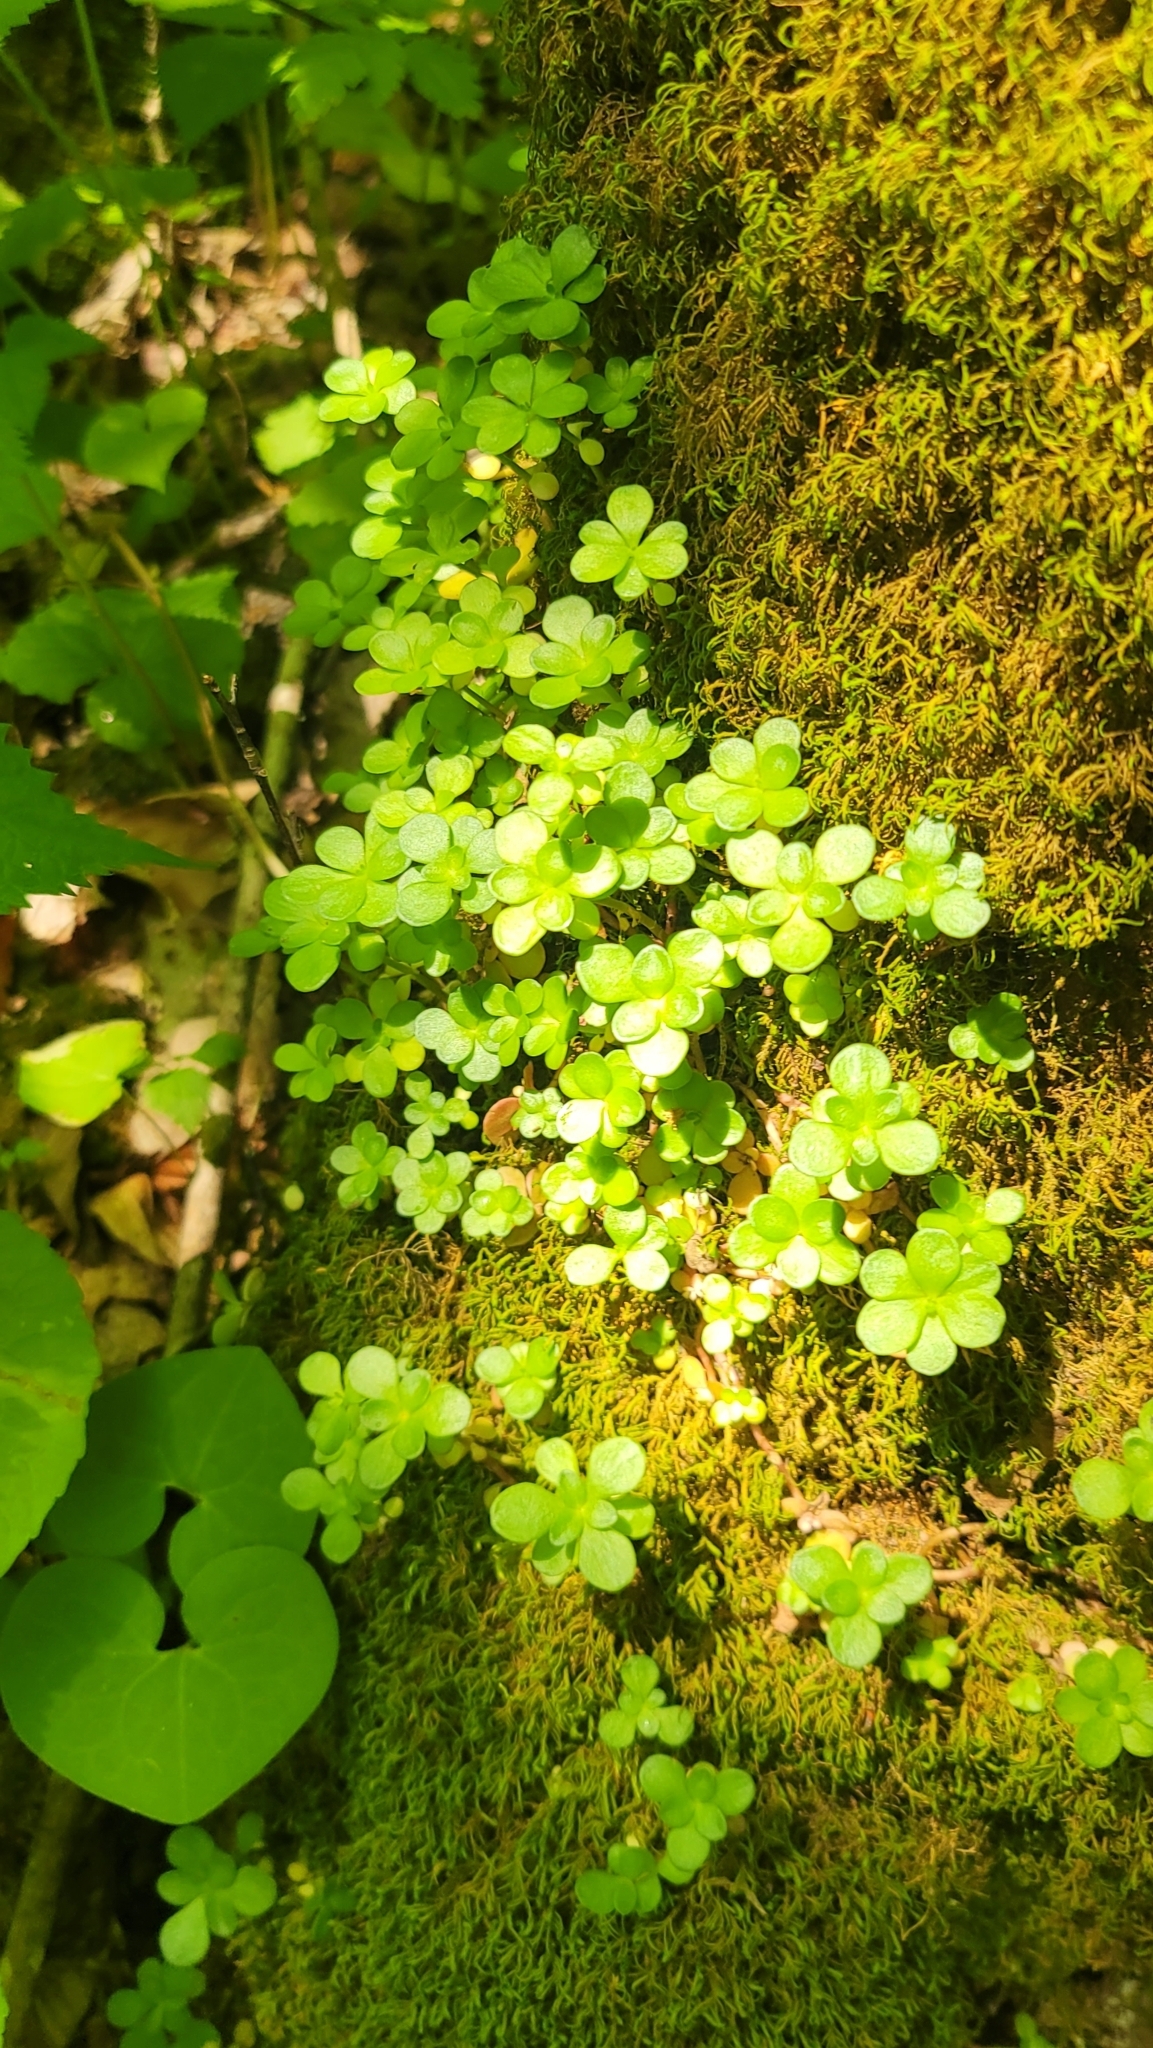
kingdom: Plantae
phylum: Tracheophyta
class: Magnoliopsida
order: Saxifragales
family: Crassulaceae
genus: Sedum
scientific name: Sedum ternatum
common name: Wild stonecrop
